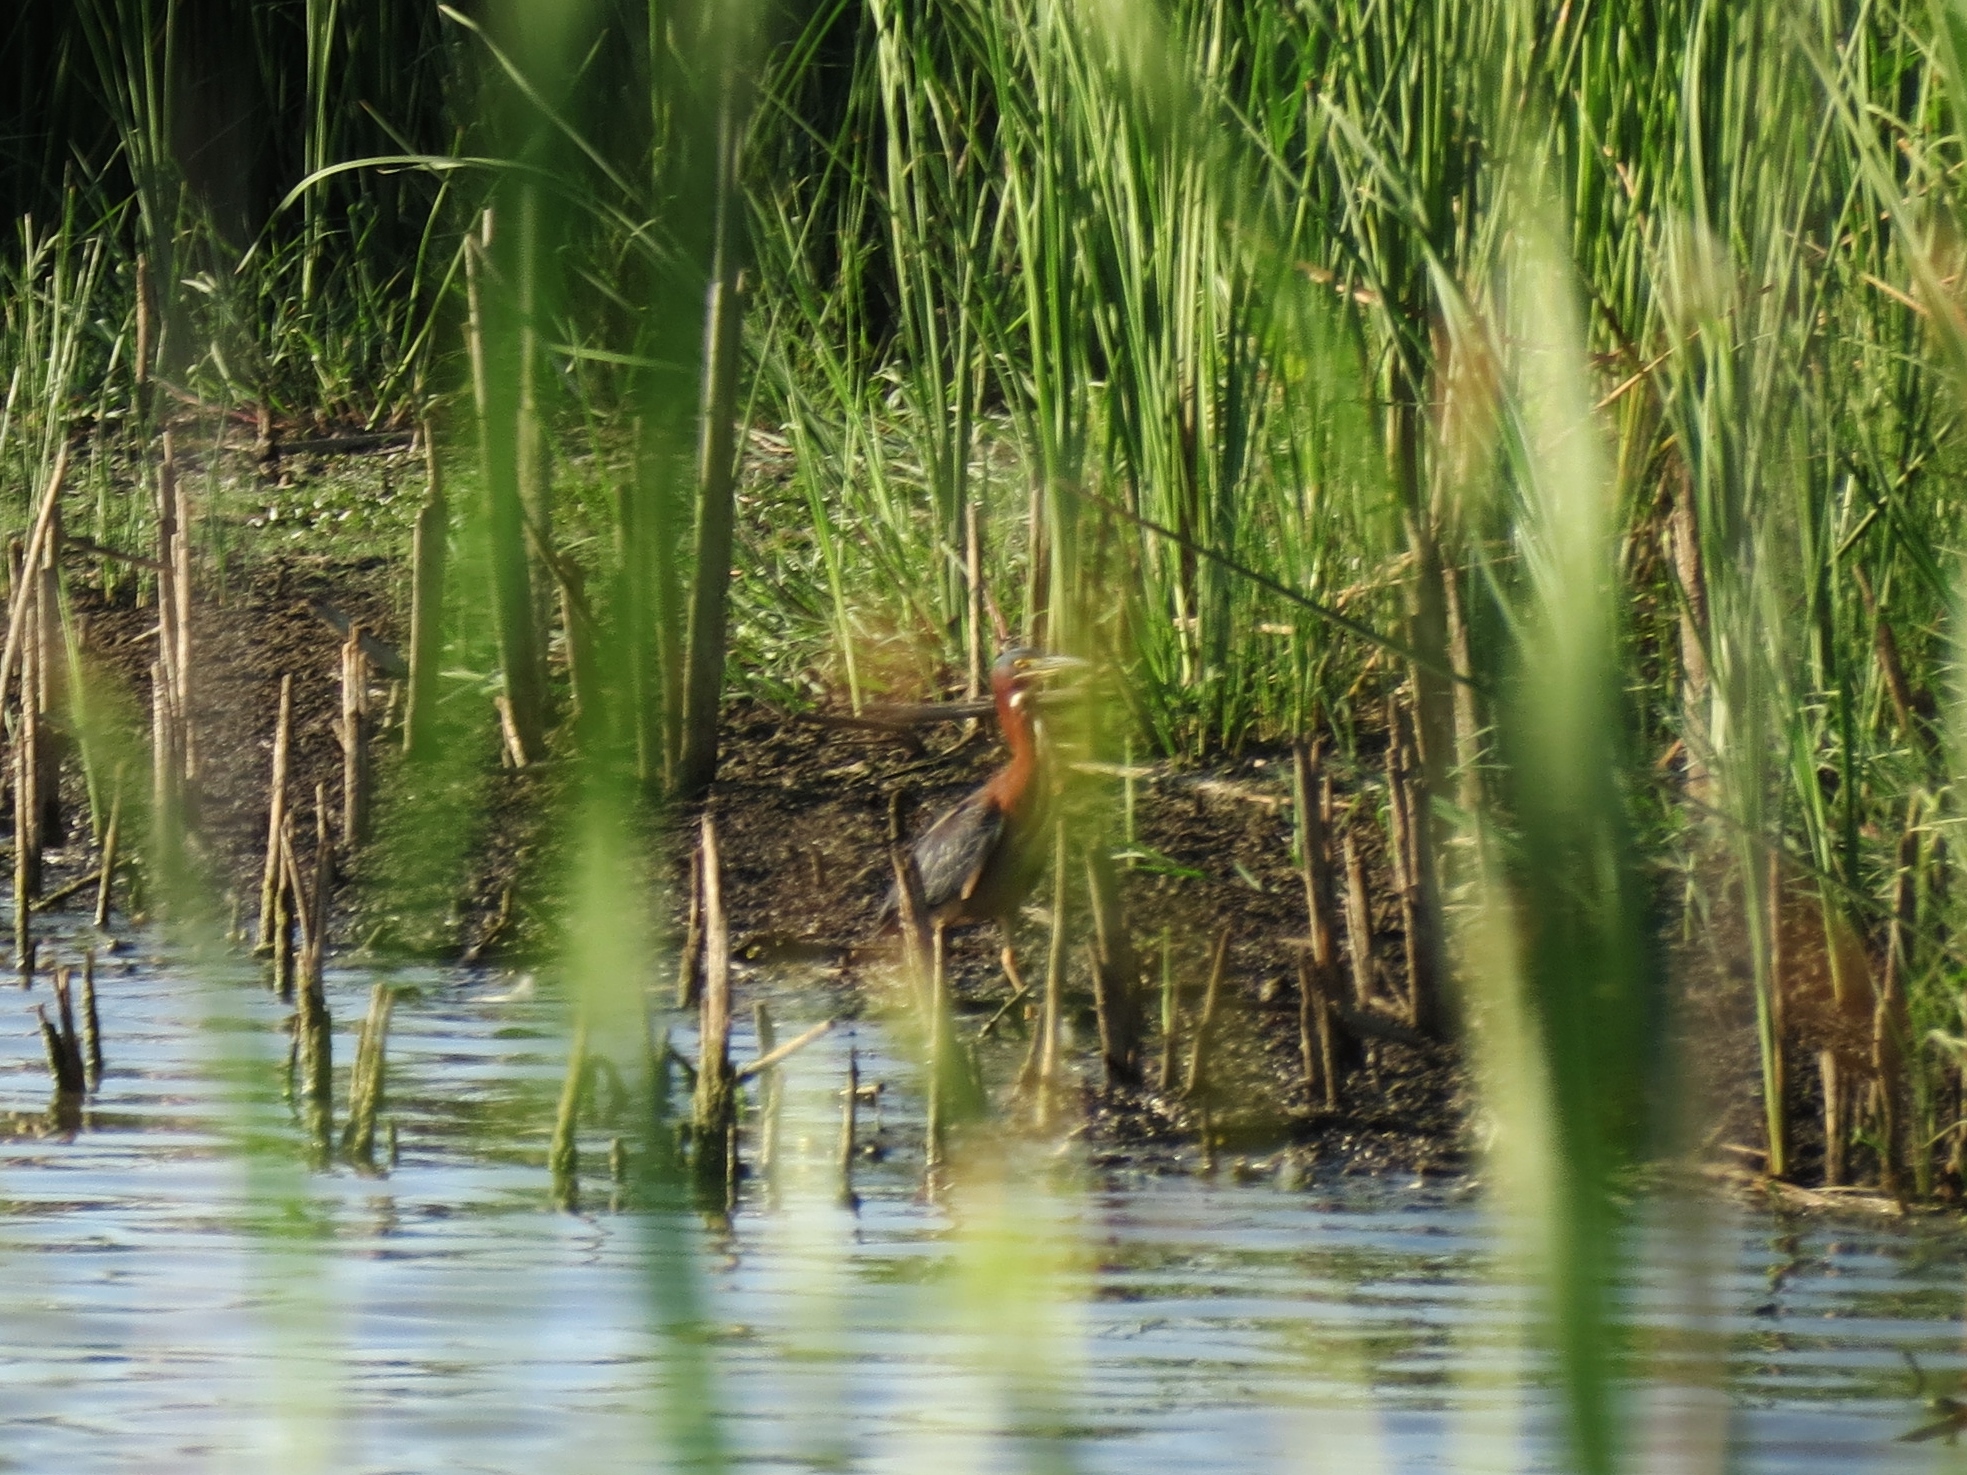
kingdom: Animalia
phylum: Chordata
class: Aves
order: Pelecaniformes
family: Ardeidae
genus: Butorides
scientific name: Butorides virescens
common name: Green heron
